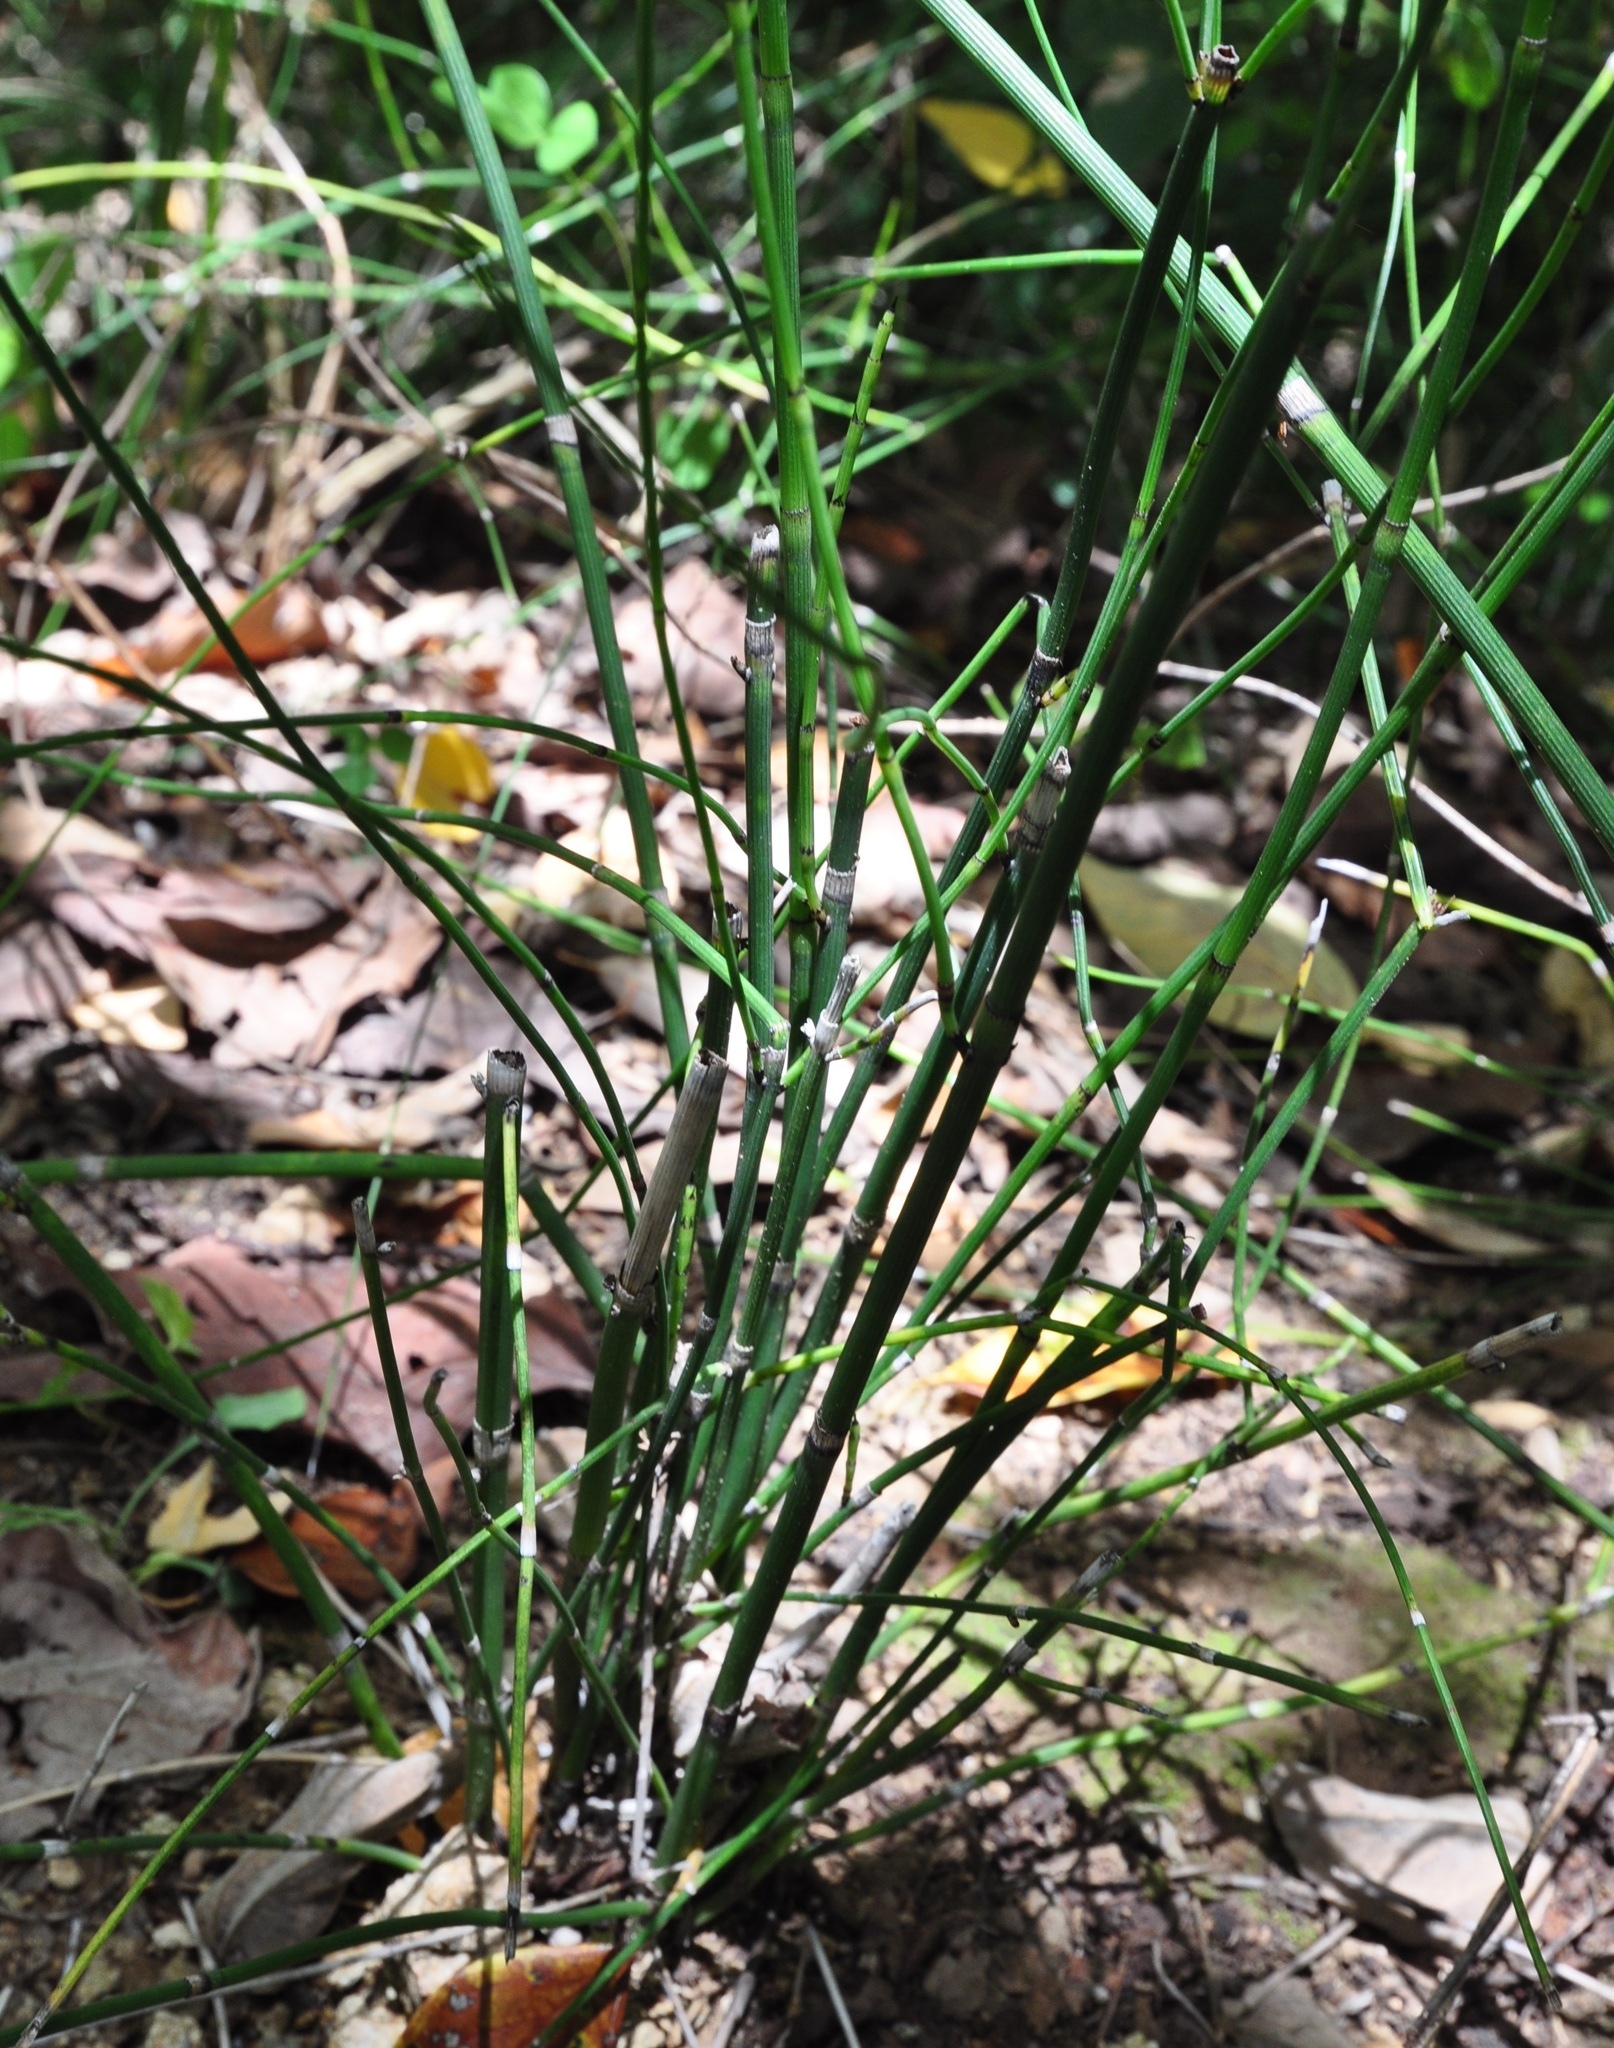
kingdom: Plantae
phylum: Tracheophyta
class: Polypodiopsida
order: Equisetales
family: Equisetaceae
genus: Equisetum
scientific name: Equisetum ferrissii
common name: Ferriss' horsetail
